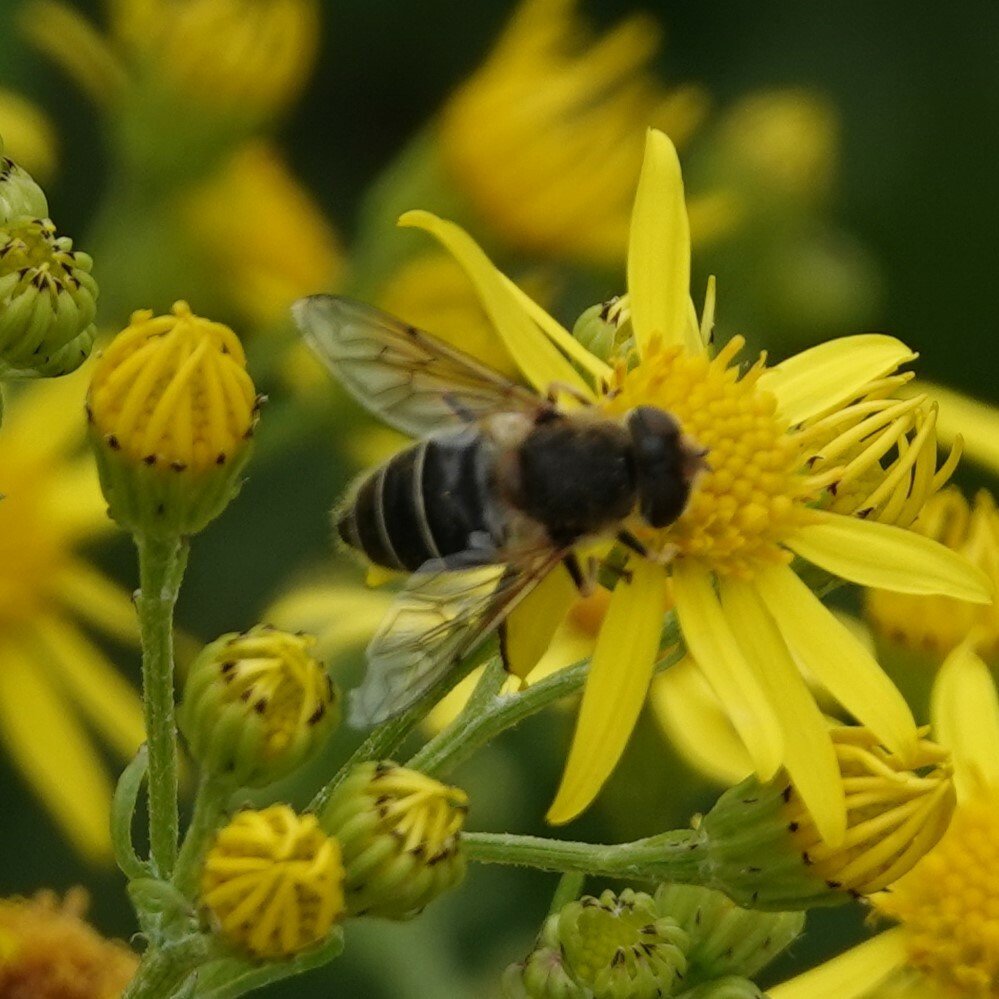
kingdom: Animalia
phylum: Arthropoda
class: Insecta
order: Diptera
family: Syrphidae
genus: Eristalis
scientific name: Eristalis nemorum
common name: Orange-spined drone fly
